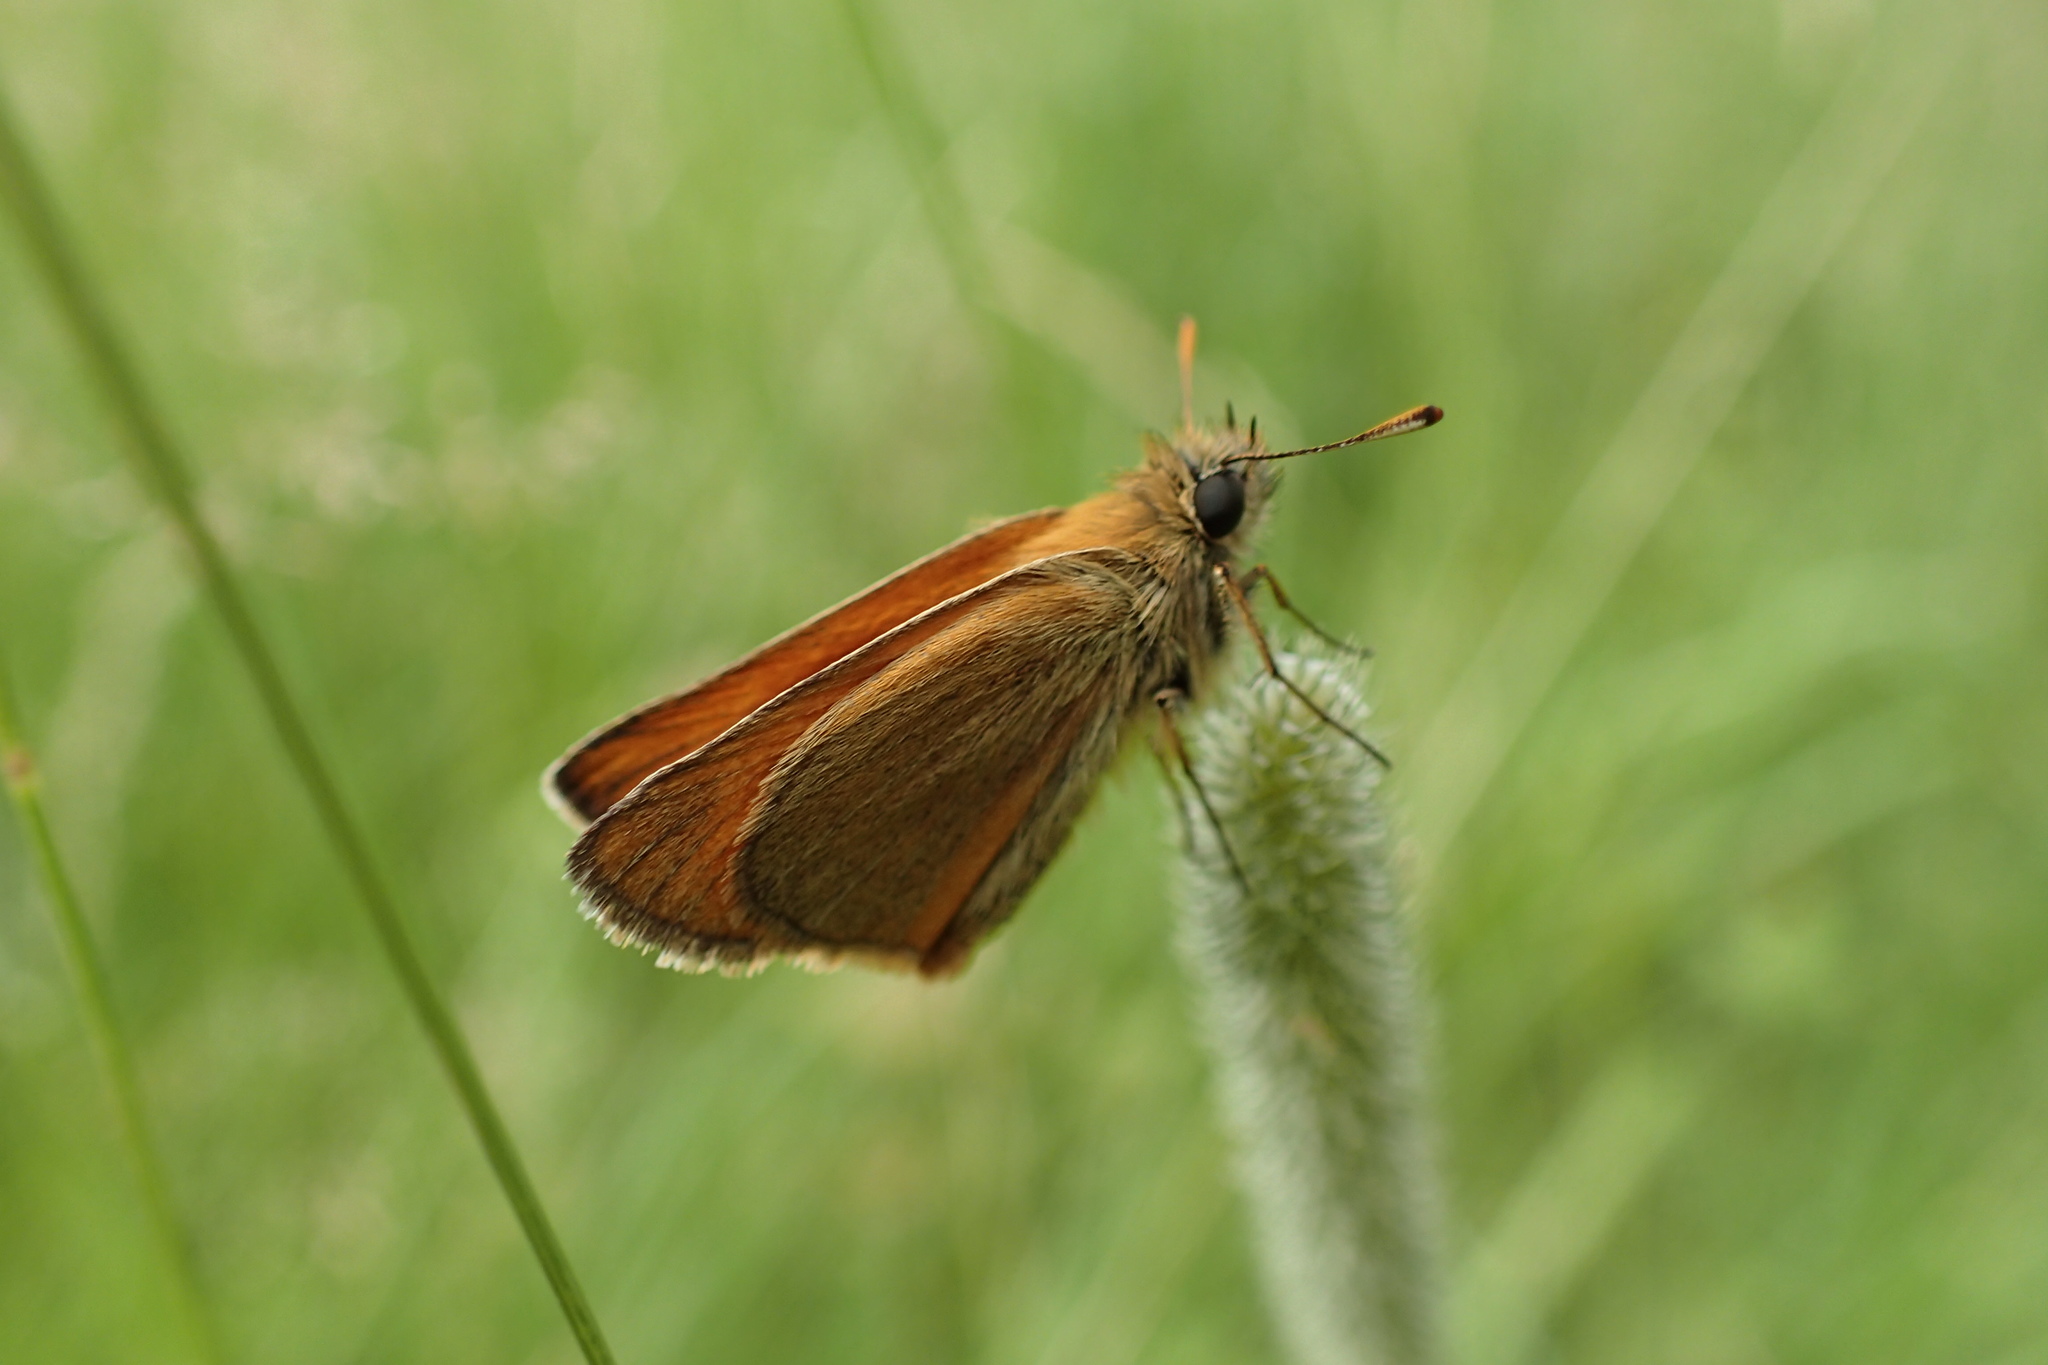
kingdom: Animalia
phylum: Arthropoda
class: Insecta
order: Lepidoptera
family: Hesperiidae
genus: Thymelicus
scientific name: Thymelicus sylvestris
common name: Small skipper
